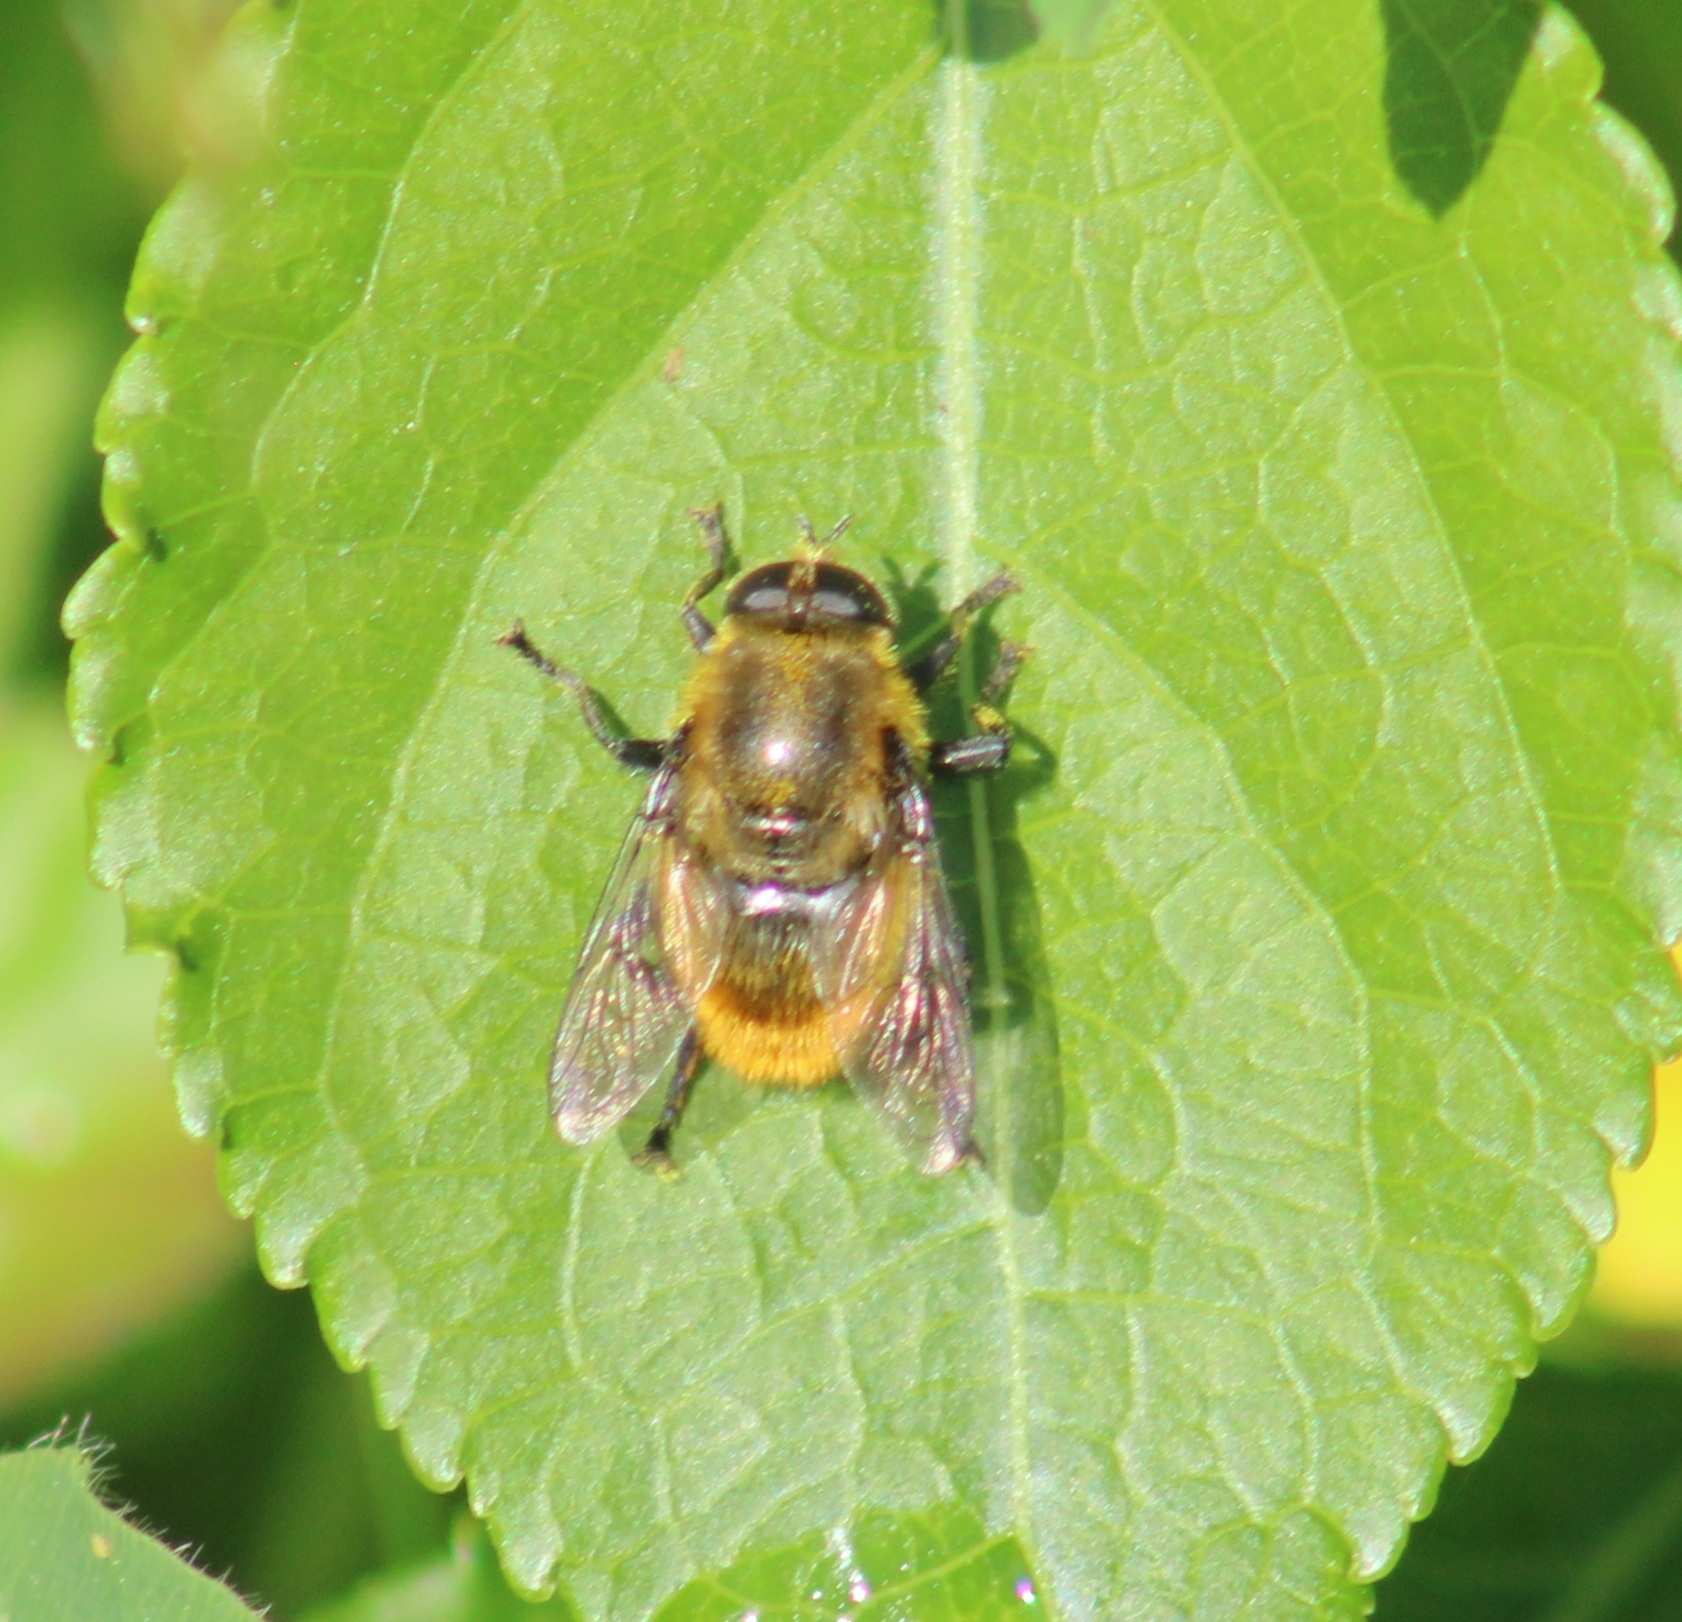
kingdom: Animalia
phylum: Arthropoda
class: Insecta
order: Diptera
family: Syrphidae
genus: Merodon
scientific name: Merodon equestris
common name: Greater bulb-fly
